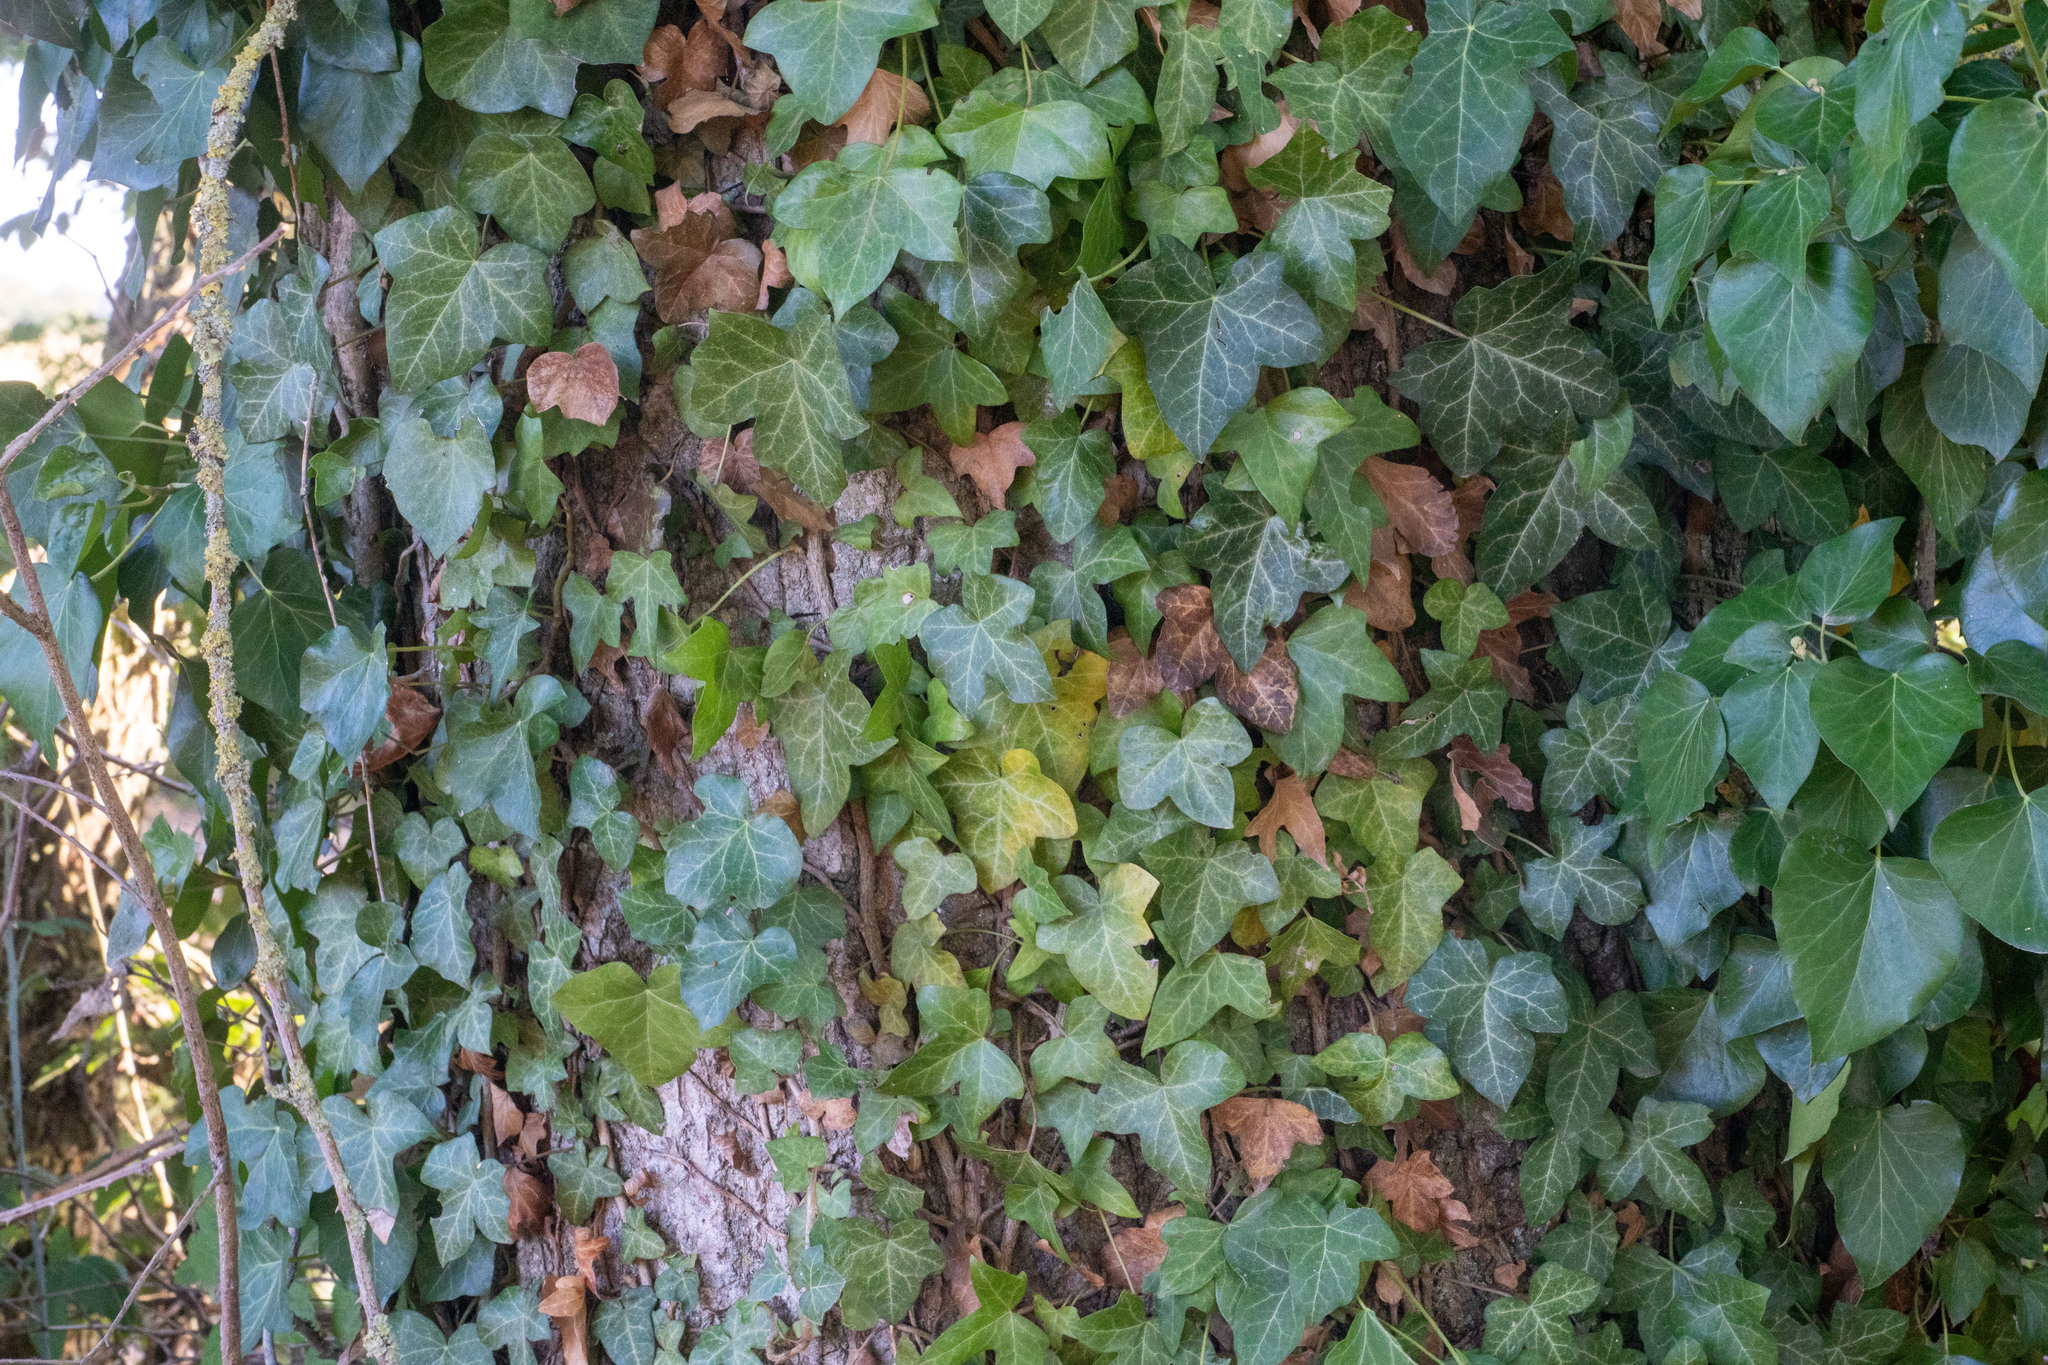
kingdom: Plantae
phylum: Tracheophyta
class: Magnoliopsida
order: Apiales
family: Araliaceae
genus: Hedera
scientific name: Hedera helix
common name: Ivy
